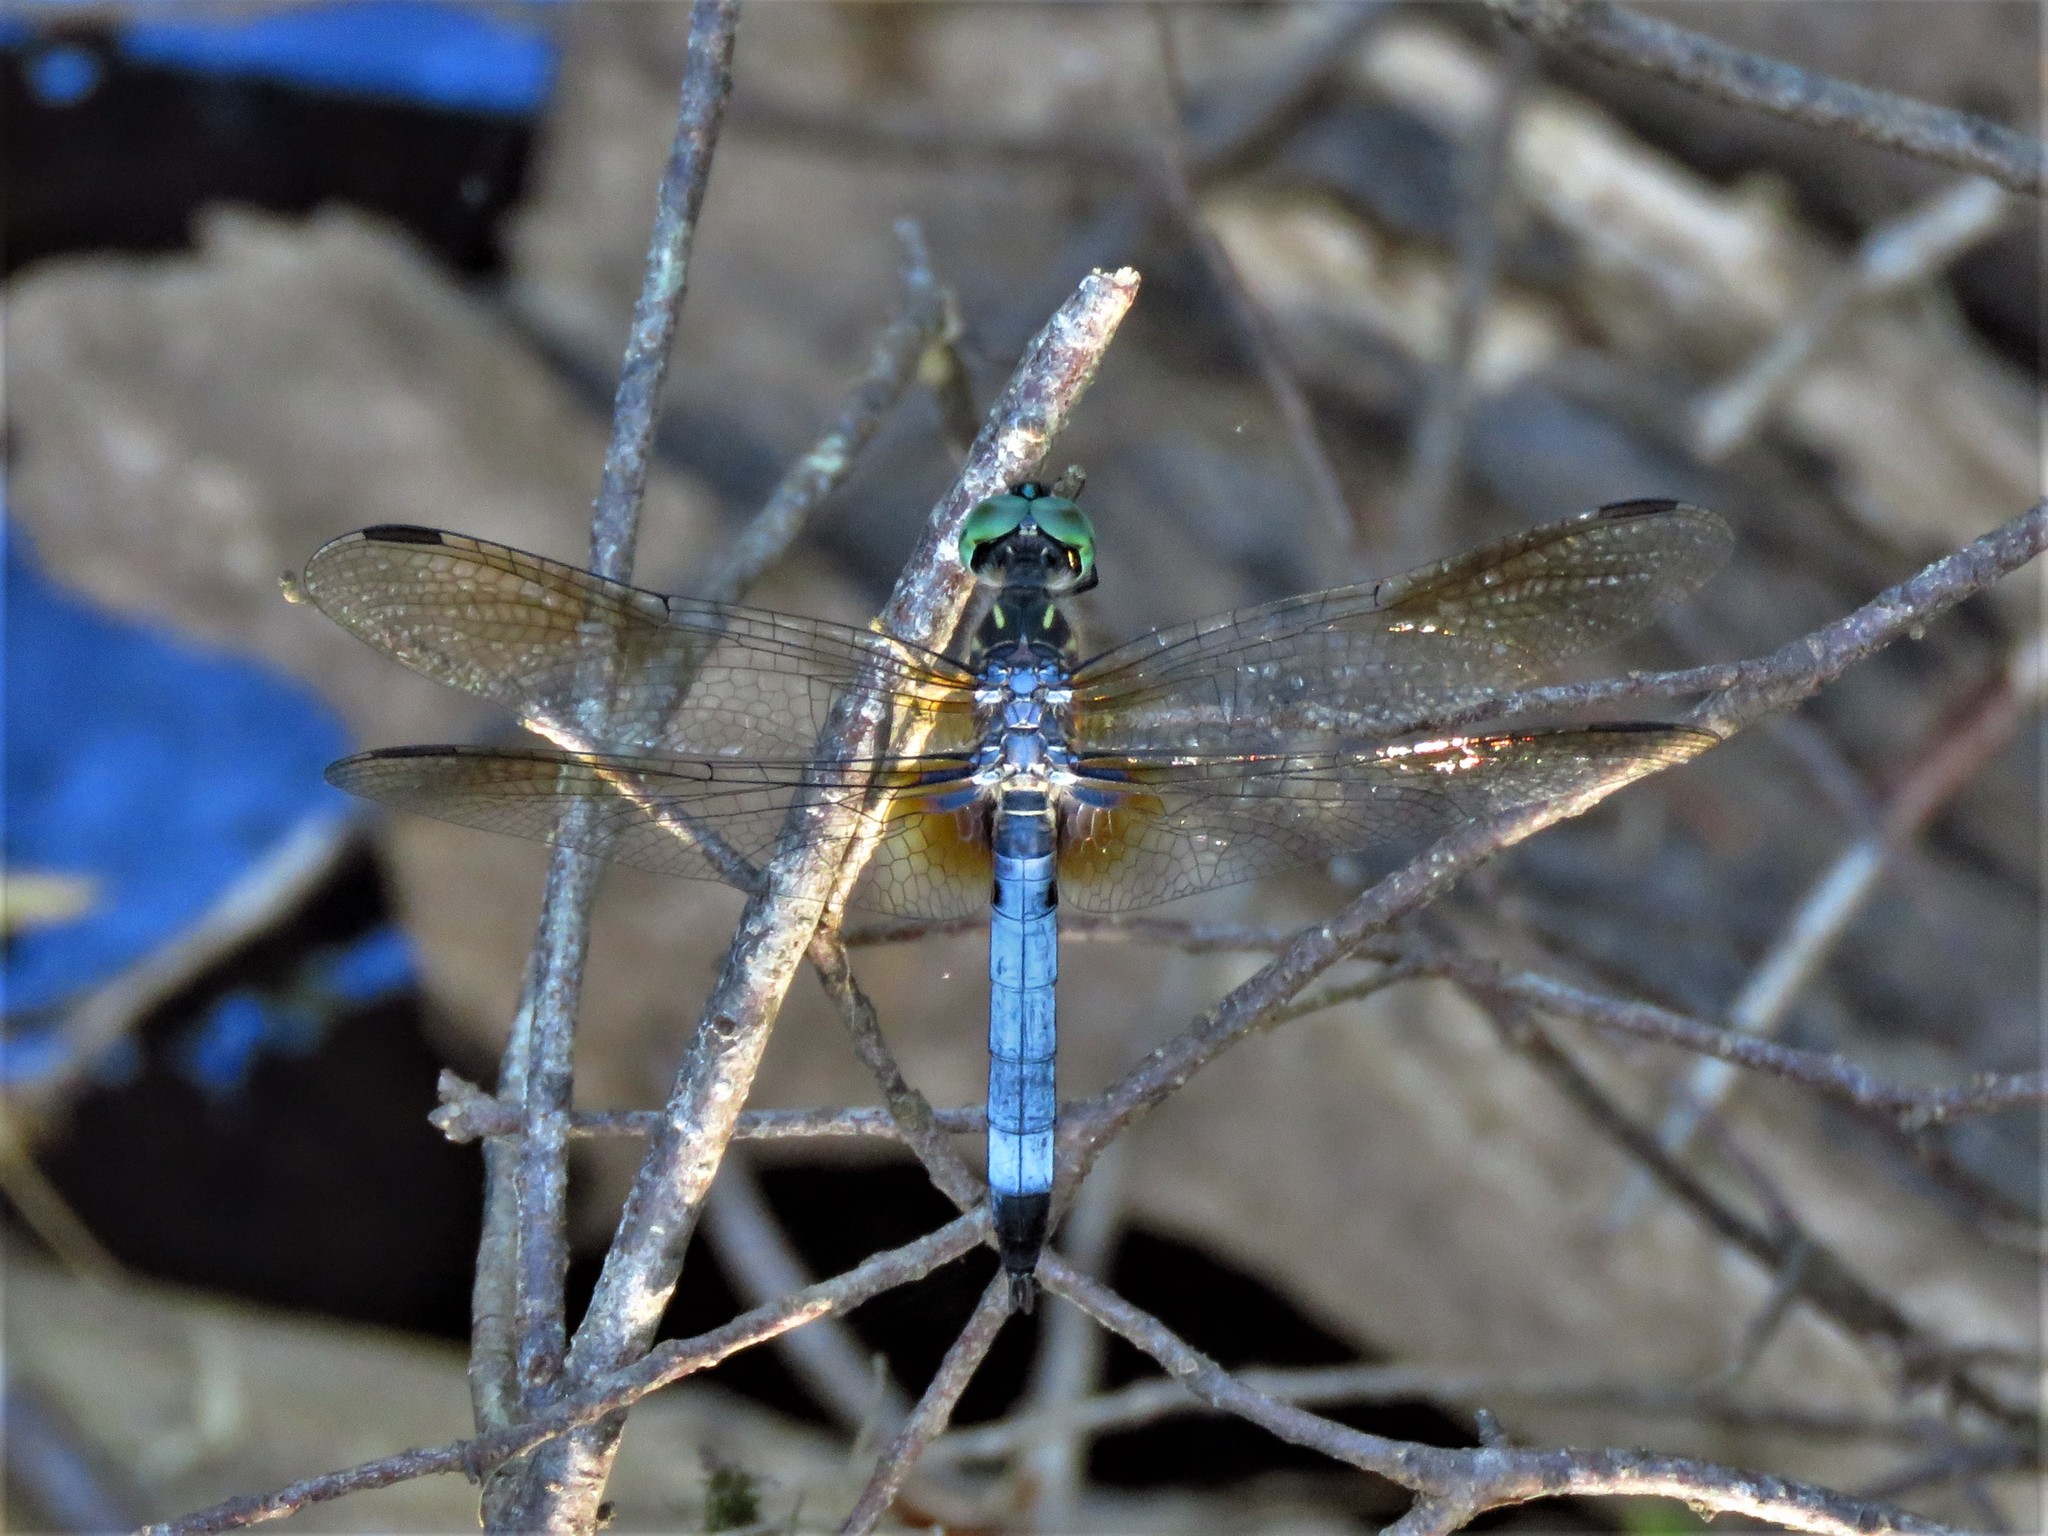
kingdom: Animalia
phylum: Arthropoda
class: Insecta
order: Odonata
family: Libellulidae
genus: Pachydiplax
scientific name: Pachydiplax longipennis
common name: Blue dasher
